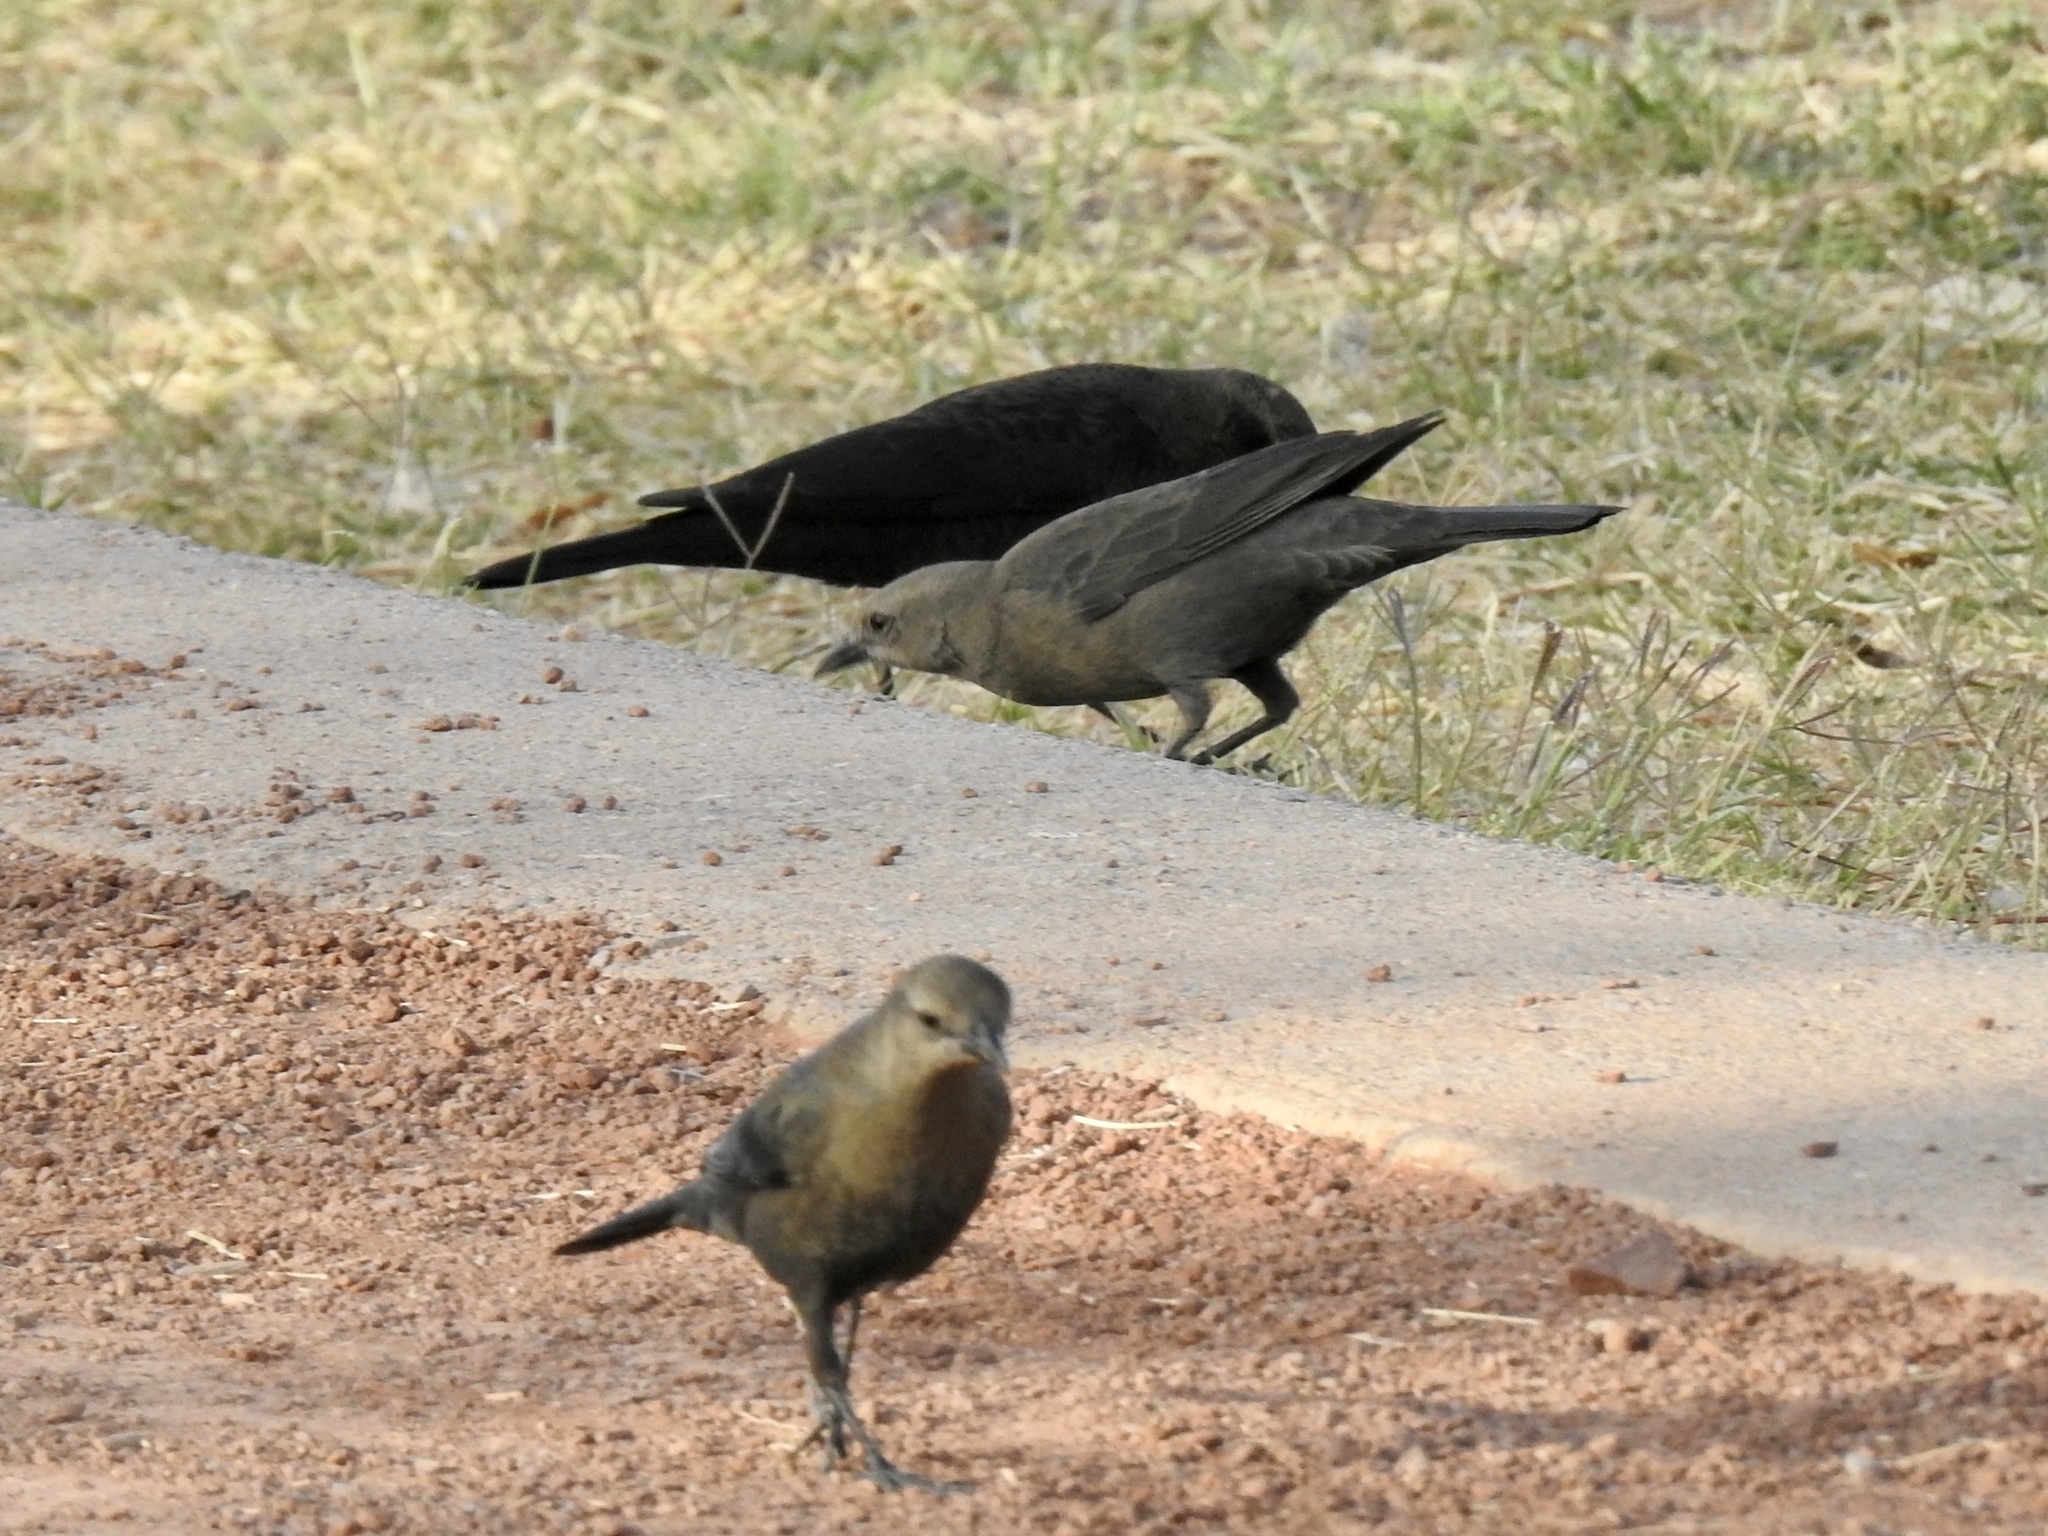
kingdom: Animalia
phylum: Chordata
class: Aves
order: Passeriformes
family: Icteridae
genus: Euphagus
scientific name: Euphagus cyanocephalus
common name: Brewer's blackbird
